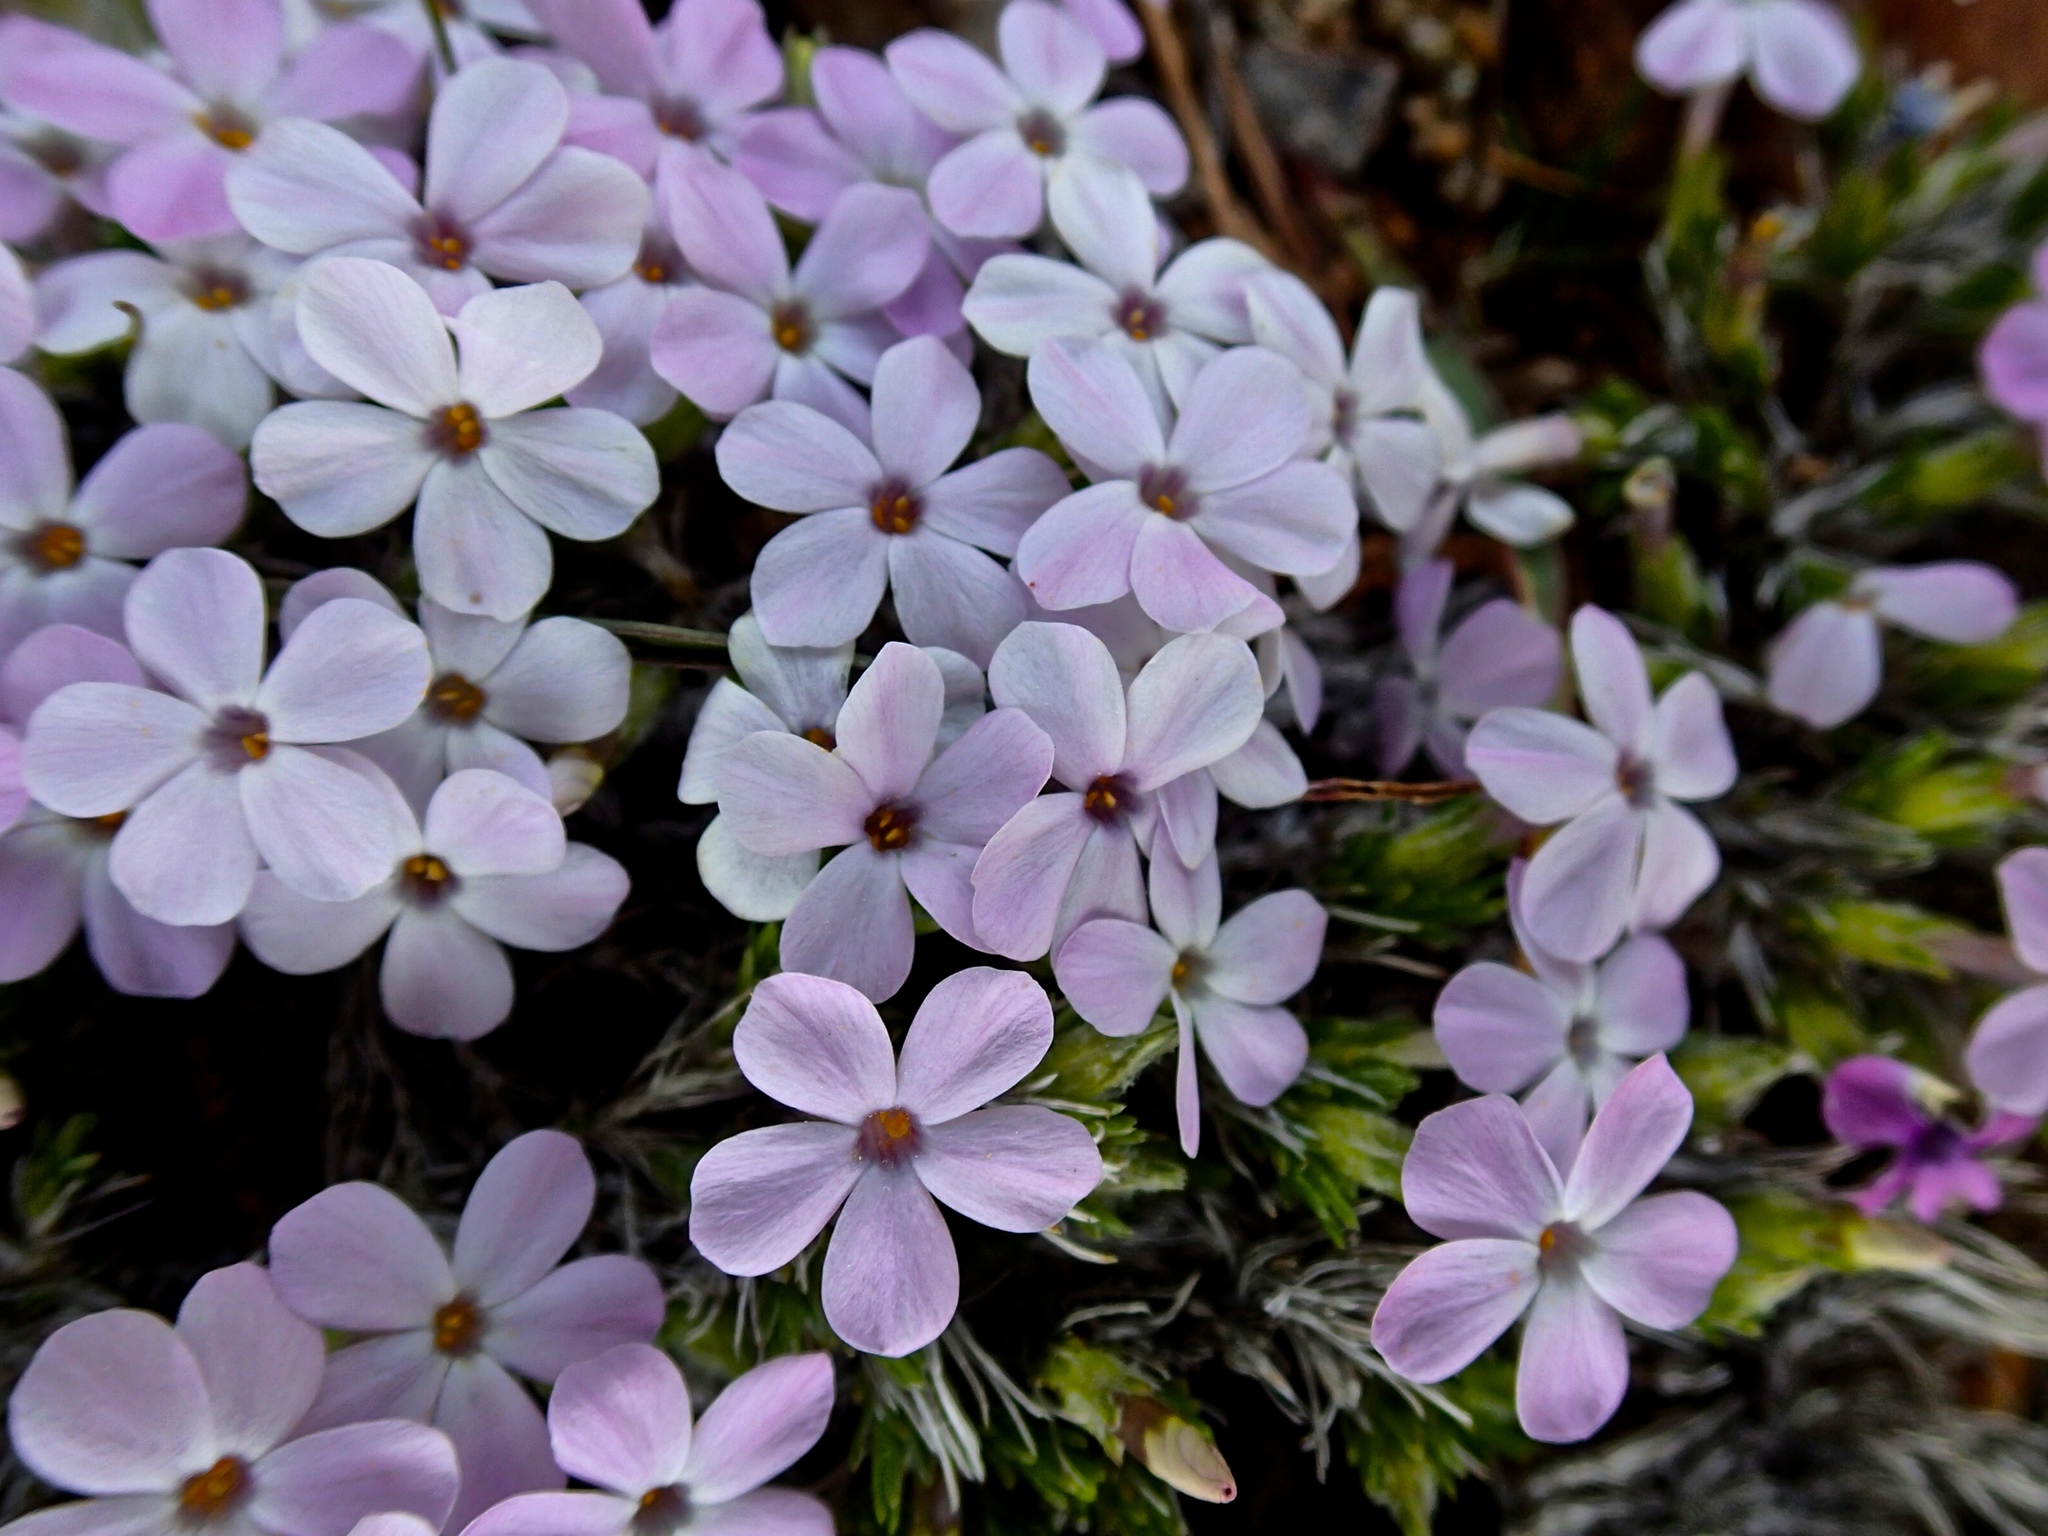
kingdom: Plantae
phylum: Tracheophyta
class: Magnoliopsida
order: Ericales
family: Polemoniaceae
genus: Phlox
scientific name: Phlox diffusa
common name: Mat phlox
